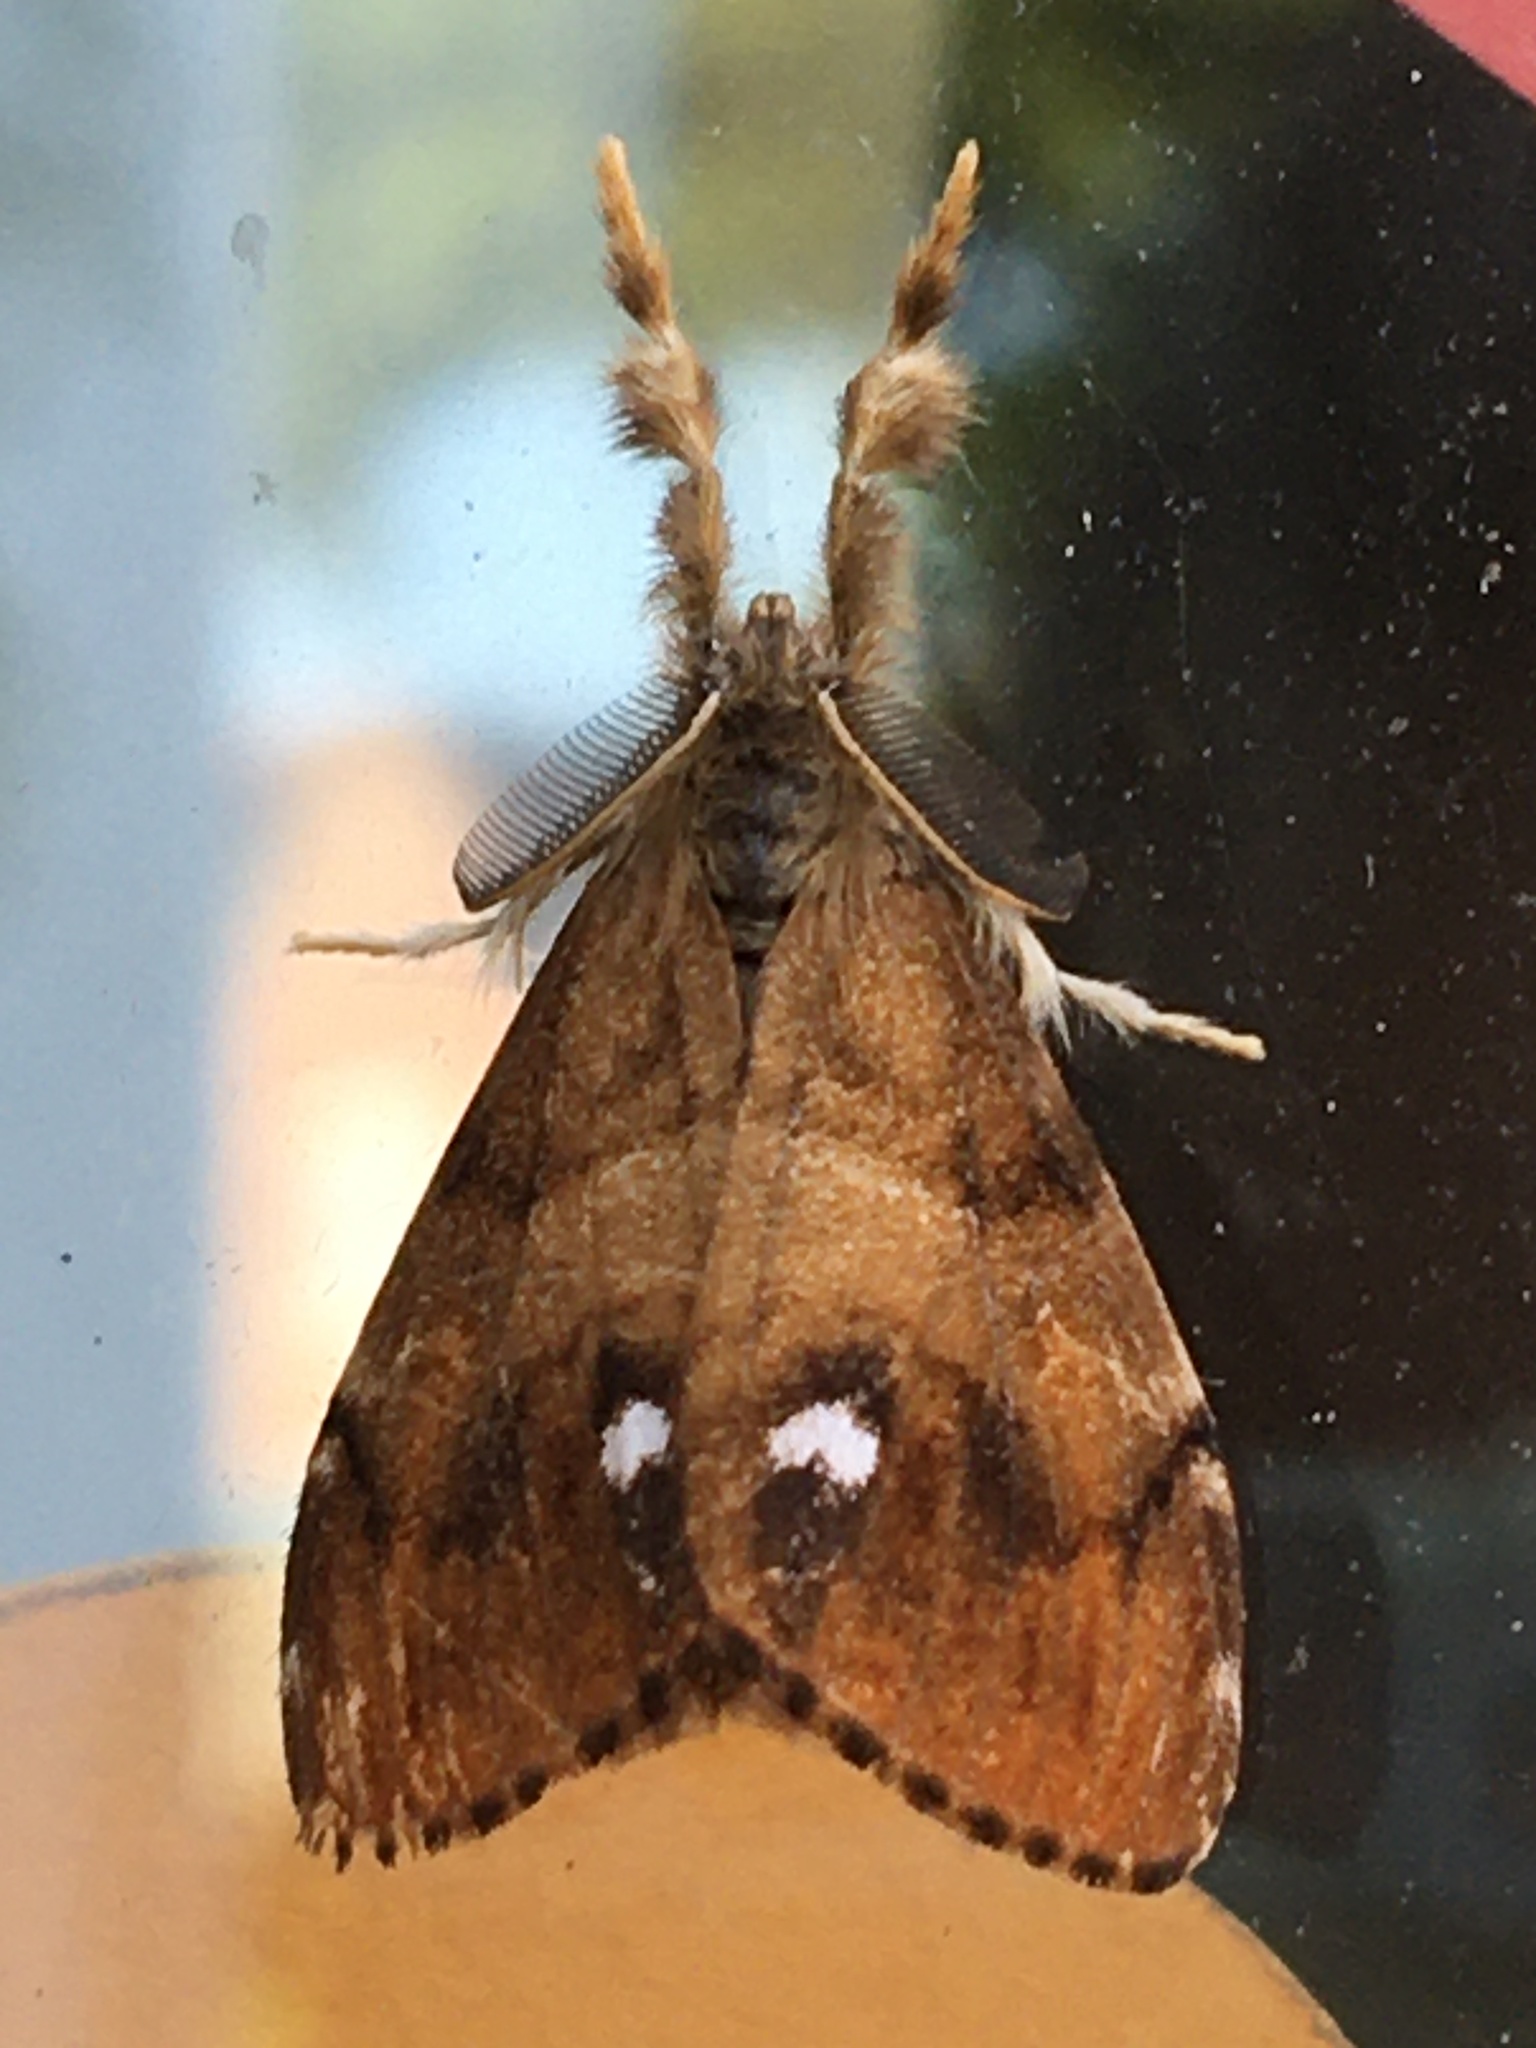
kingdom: Animalia
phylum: Arthropoda
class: Insecta
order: Lepidoptera
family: Erebidae
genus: Orgyia
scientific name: Orgyia antiqua
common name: Vapourer
